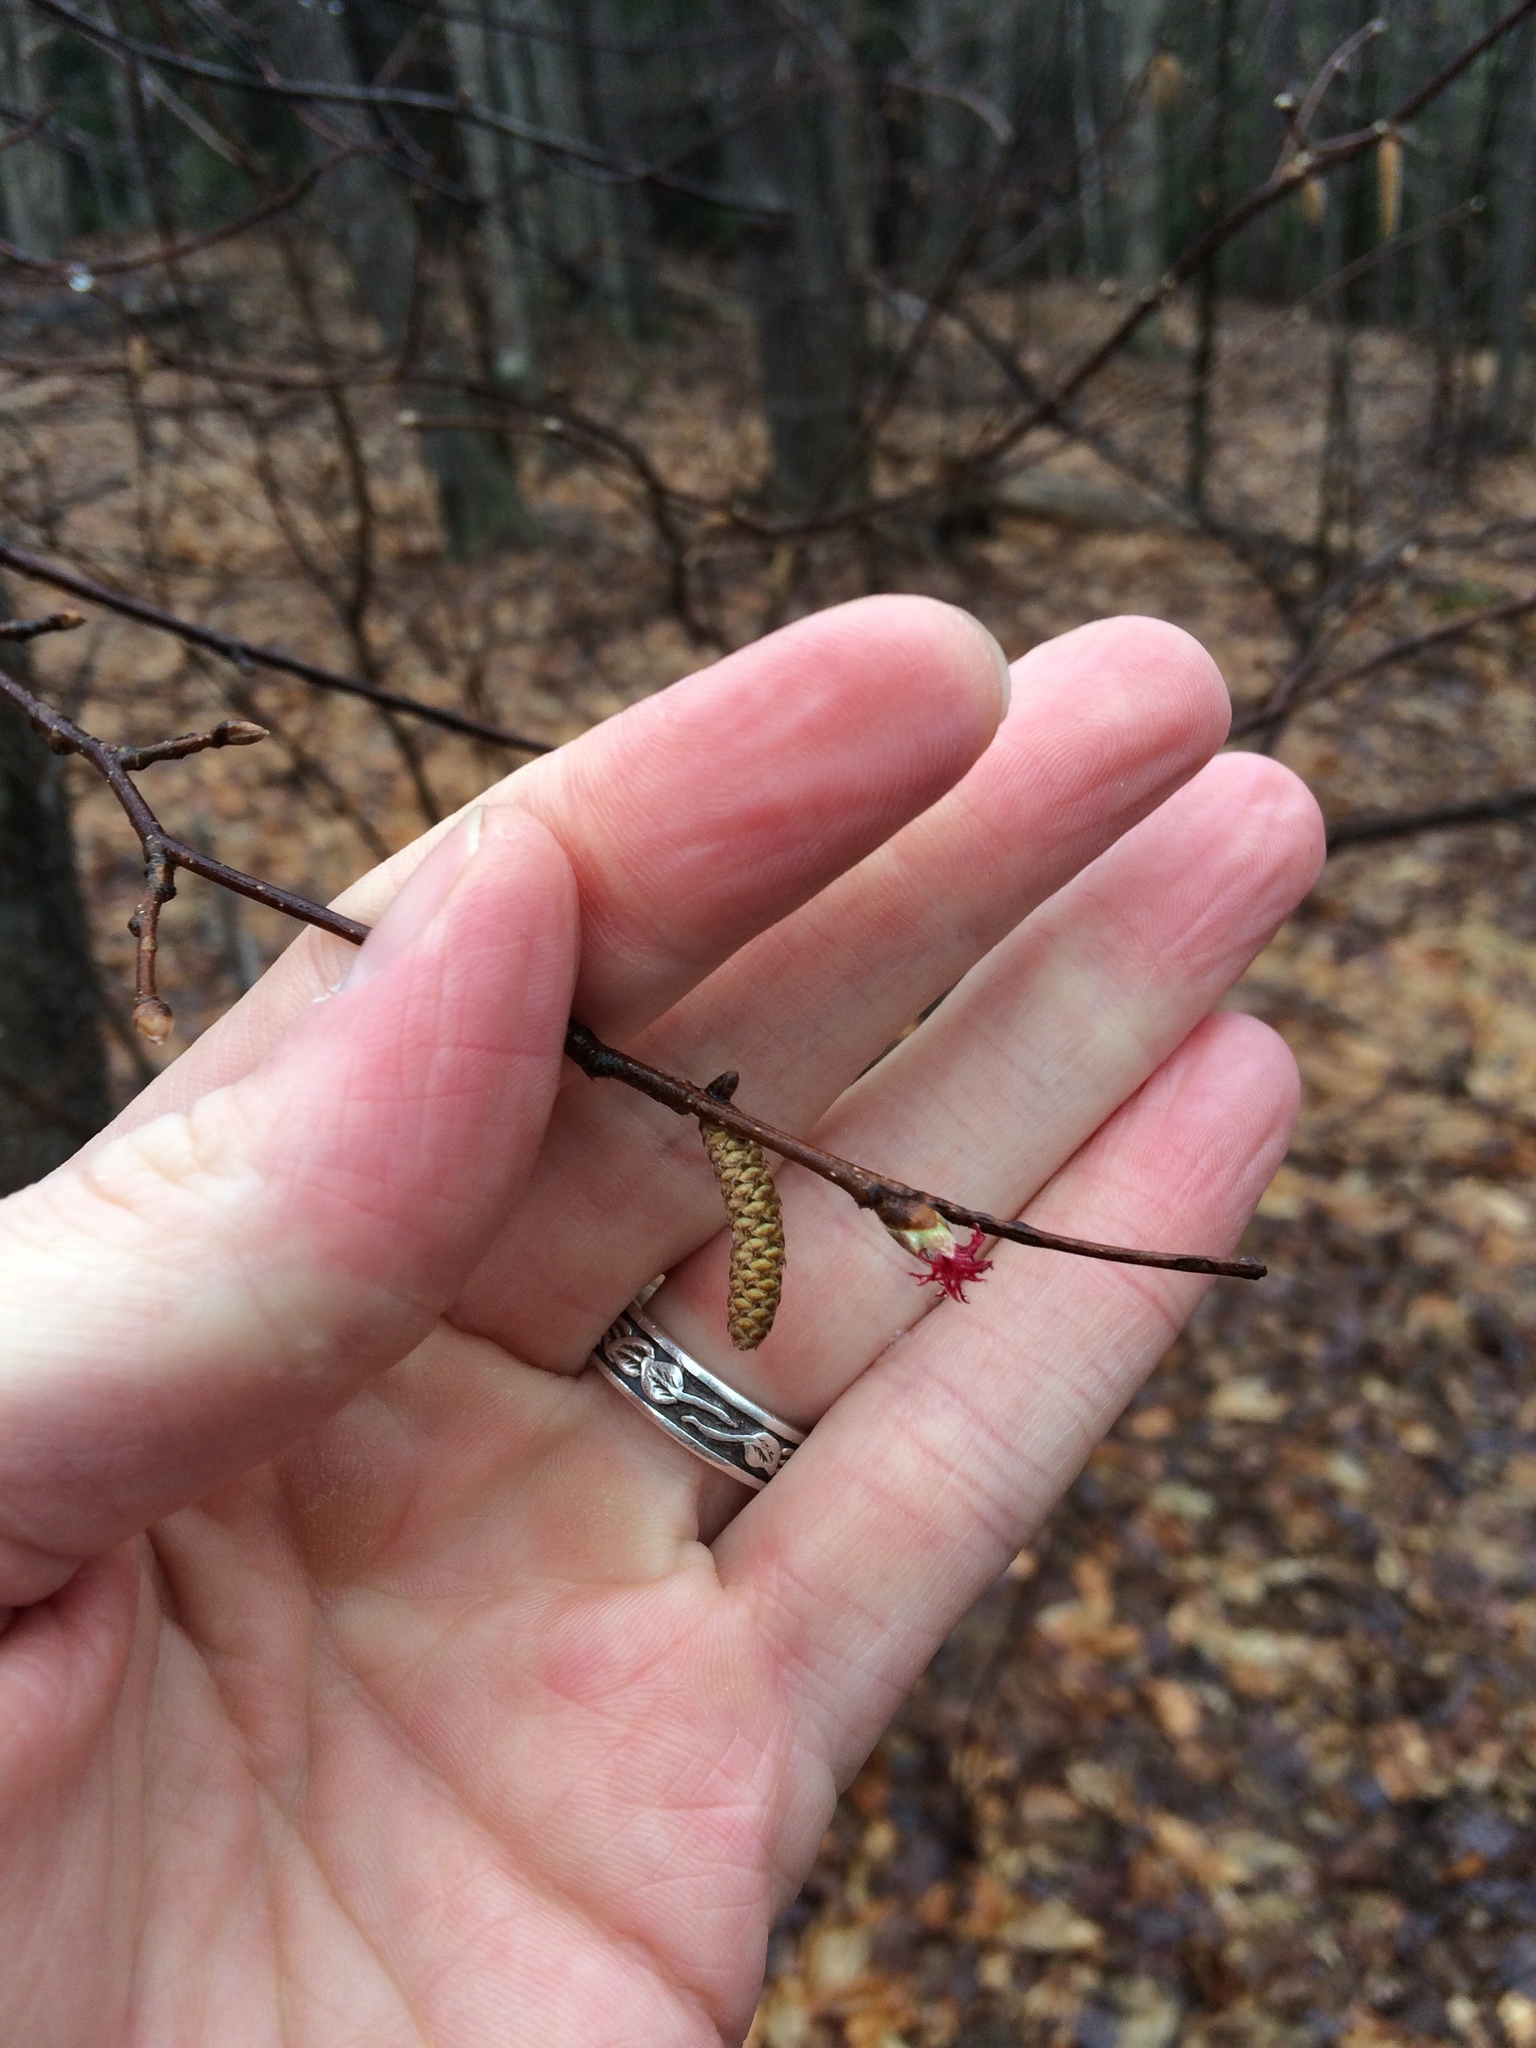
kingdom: Plantae
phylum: Tracheophyta
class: Magnoliopsida
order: Fagales
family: Betulaceae
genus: Corylus
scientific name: Corylus cornuta
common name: Beaked hazel
